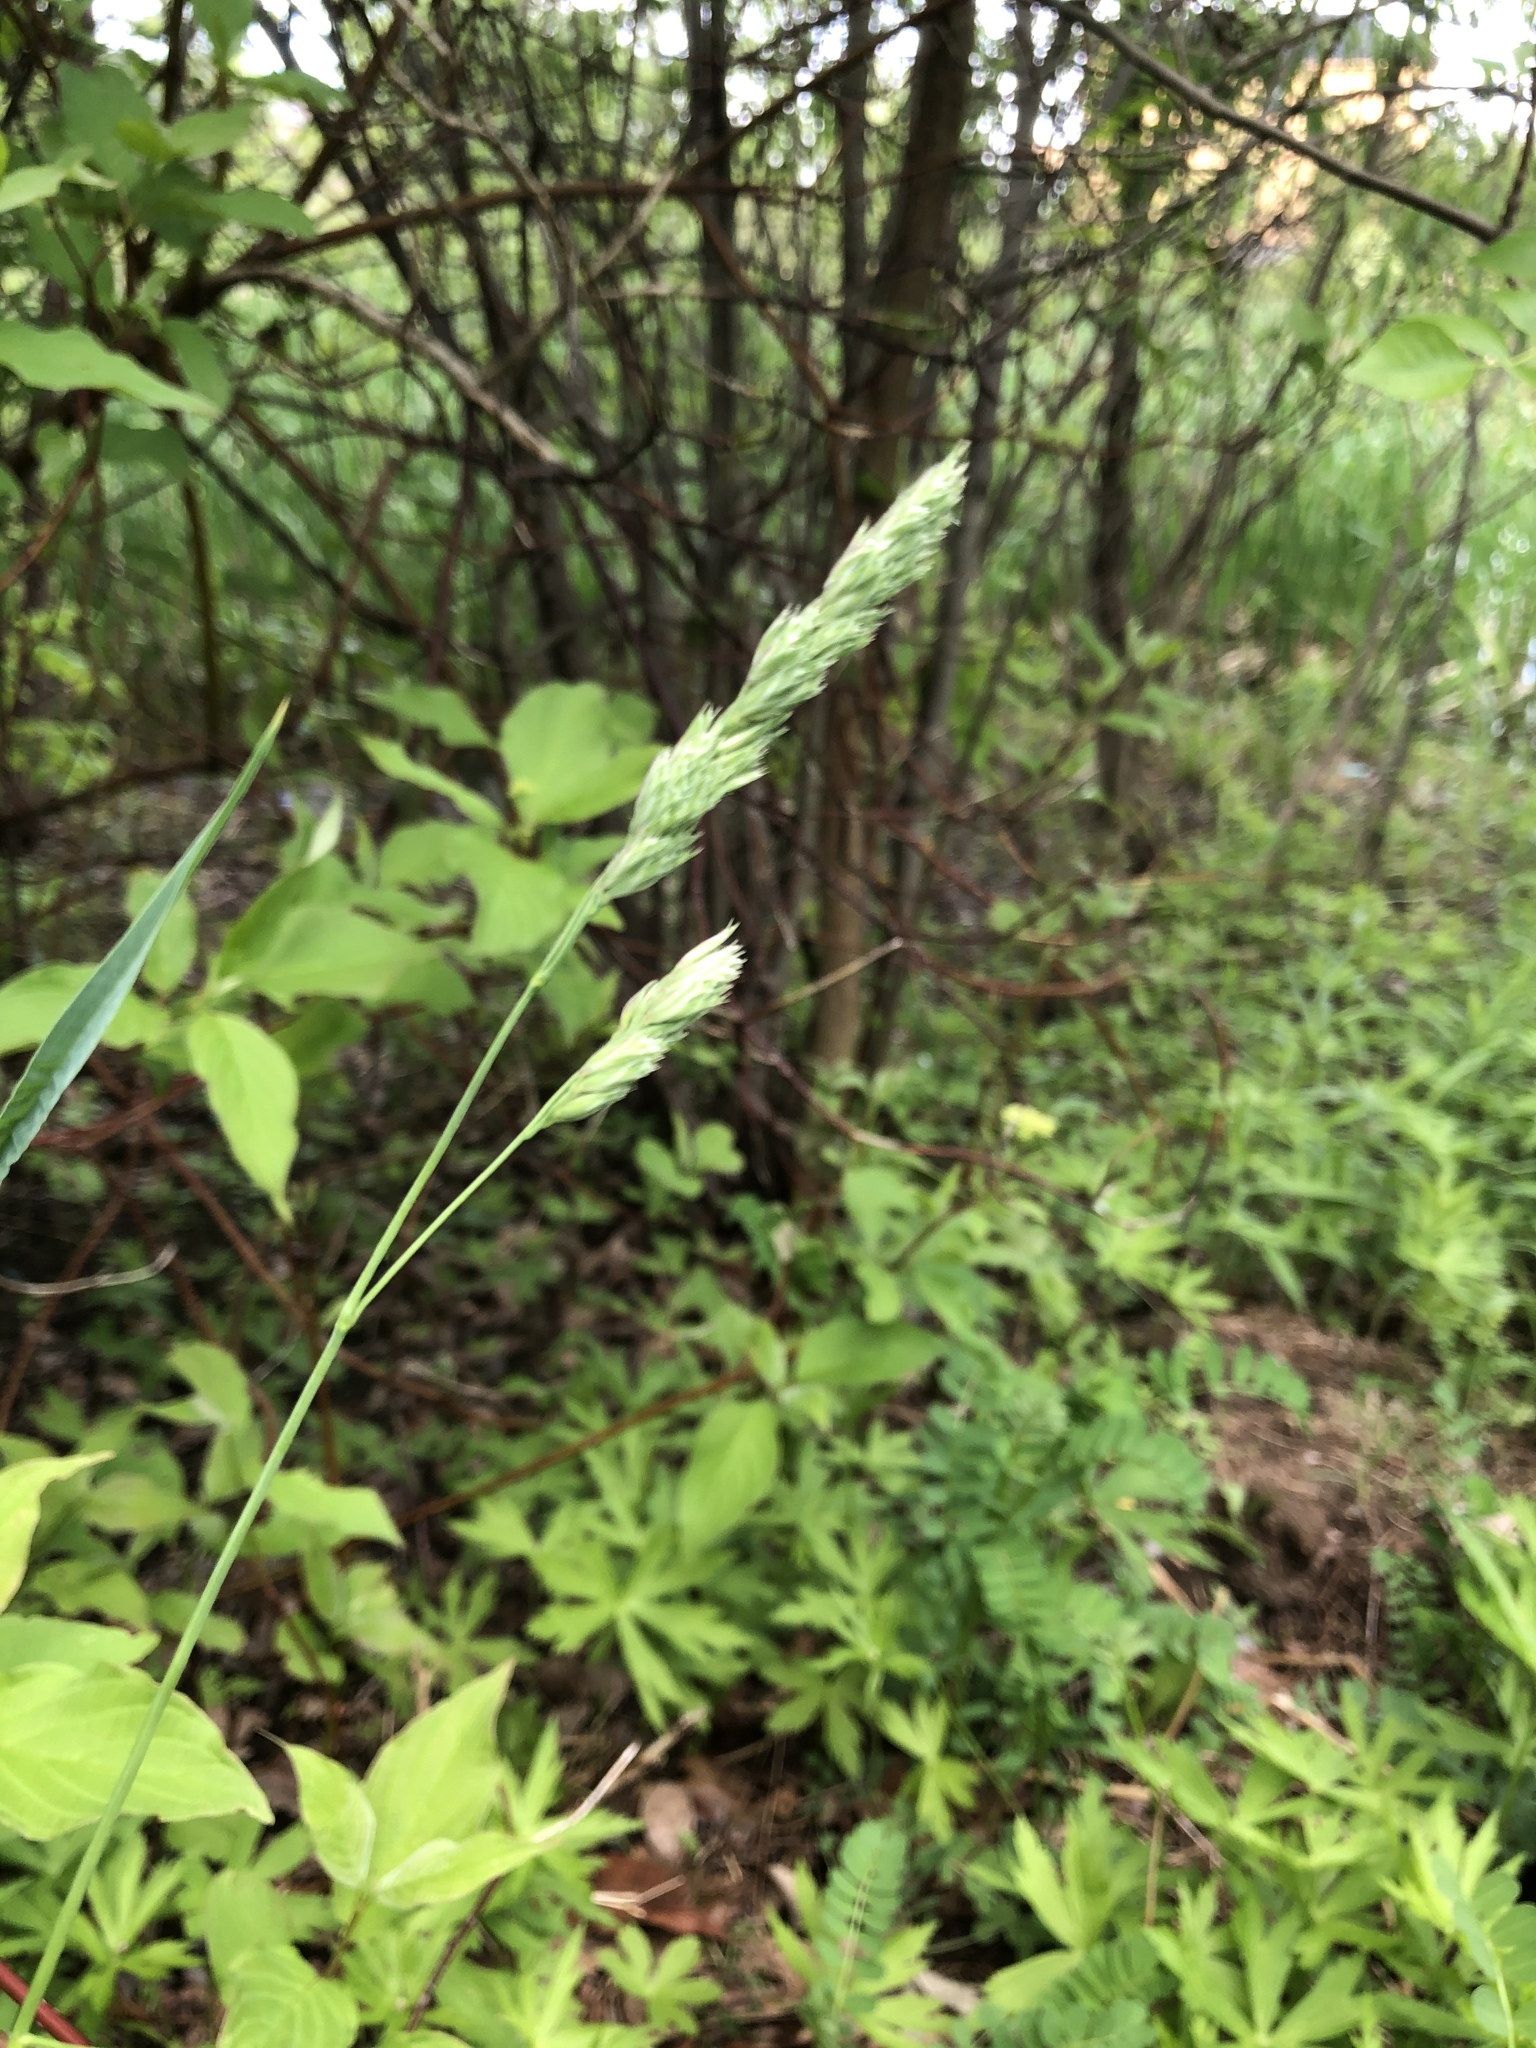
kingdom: Plantae
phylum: Tracheophyta
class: Liliopsida
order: Poales
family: Poaceae
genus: Dactylis
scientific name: Dactylis glomerata
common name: Orchardgrass
